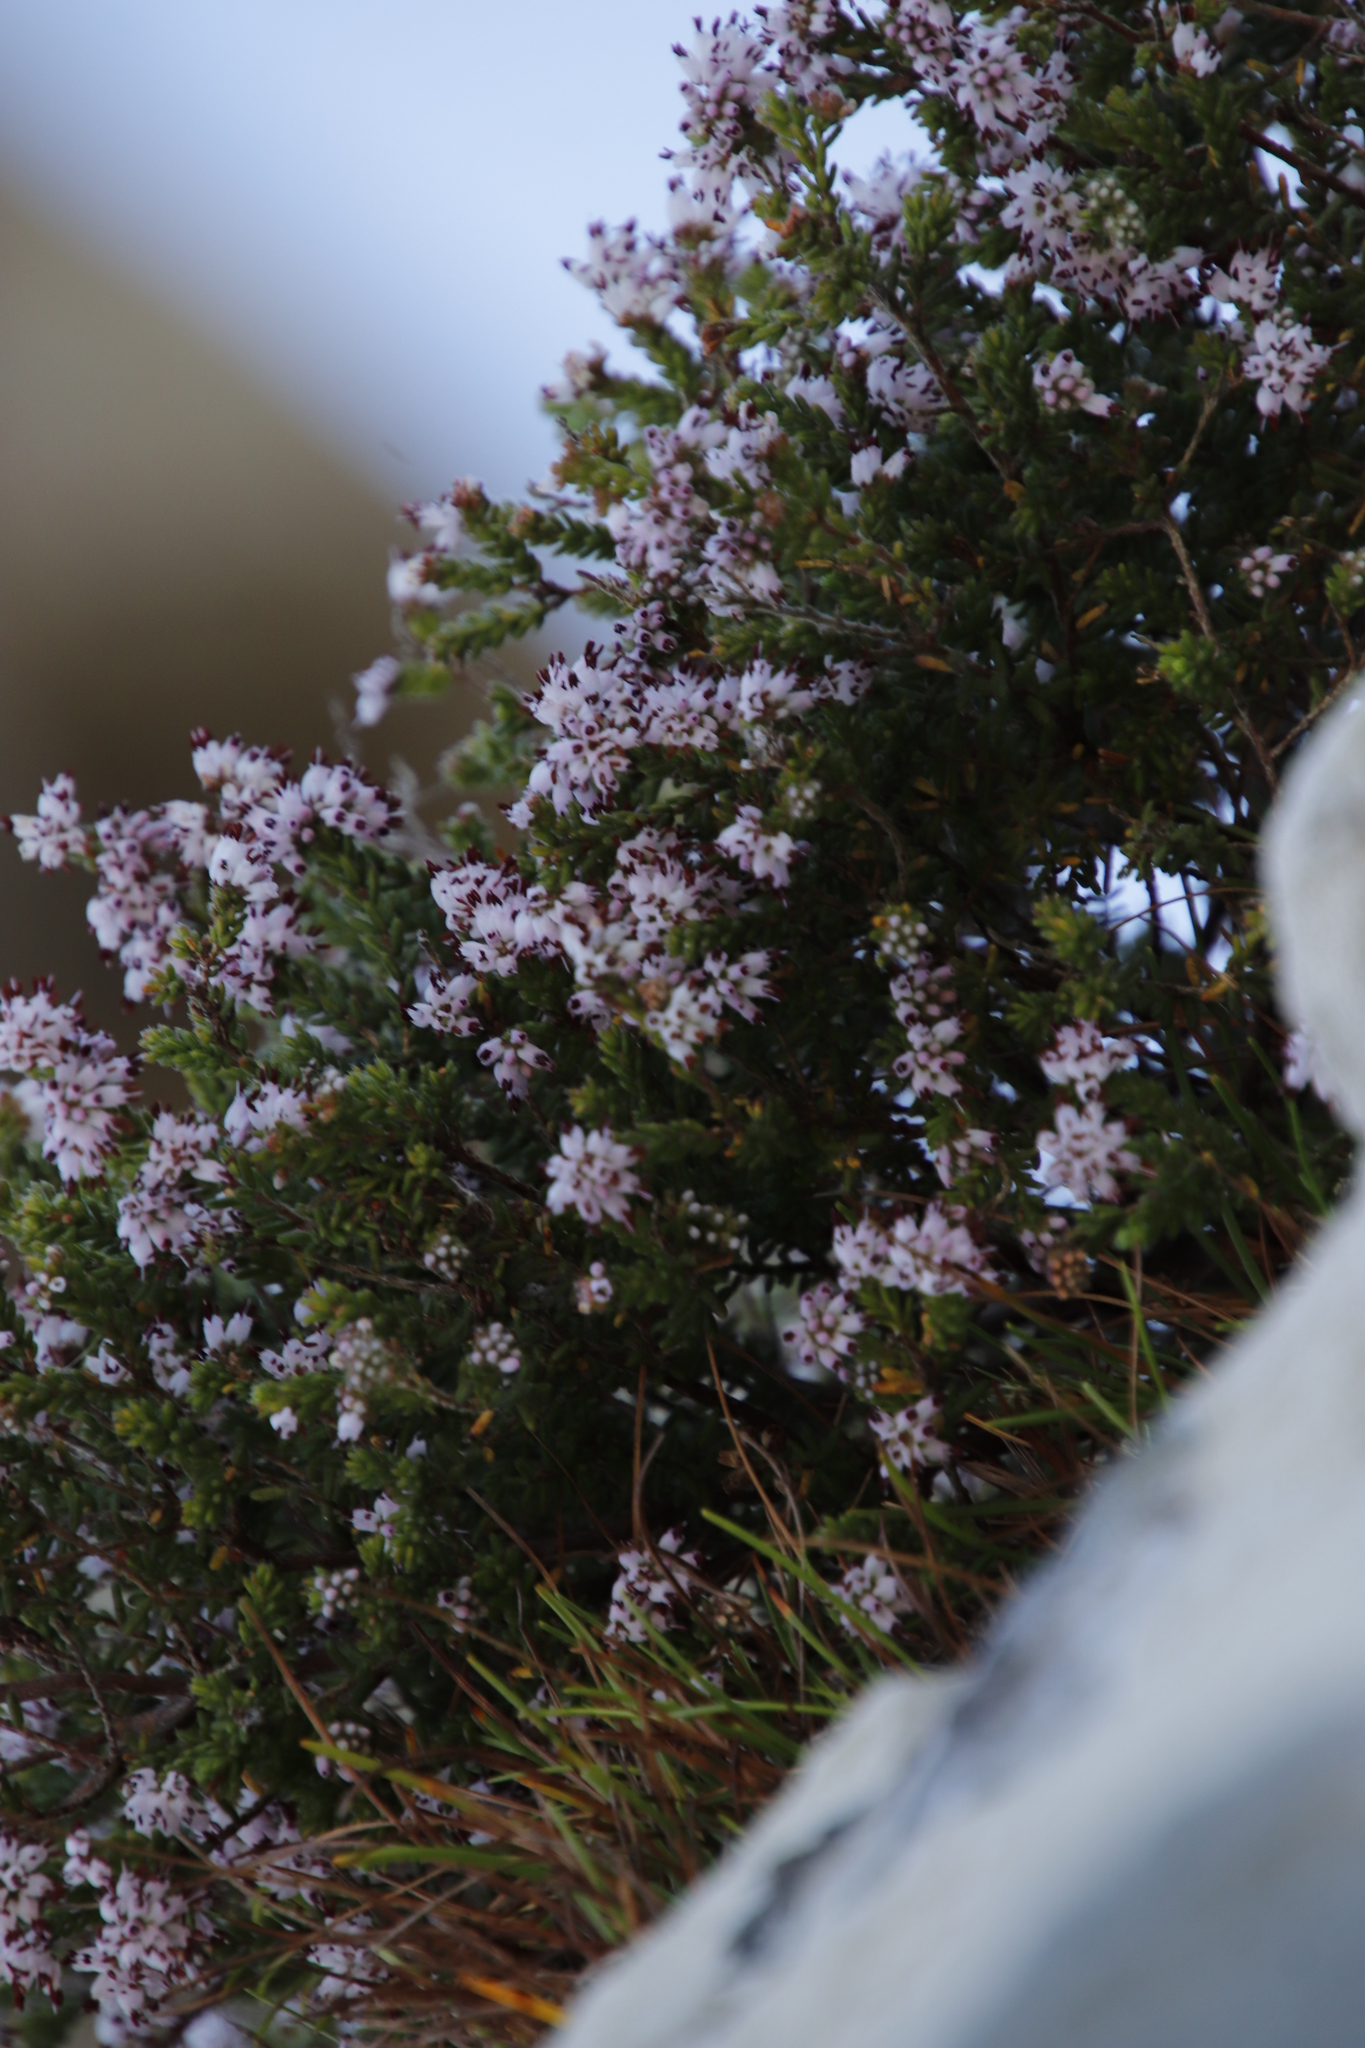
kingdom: Plantae
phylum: Tracheophyta
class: Magnoliopsida
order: Ericales
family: Ericaceae
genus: Erica
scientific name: Erica ericoides
